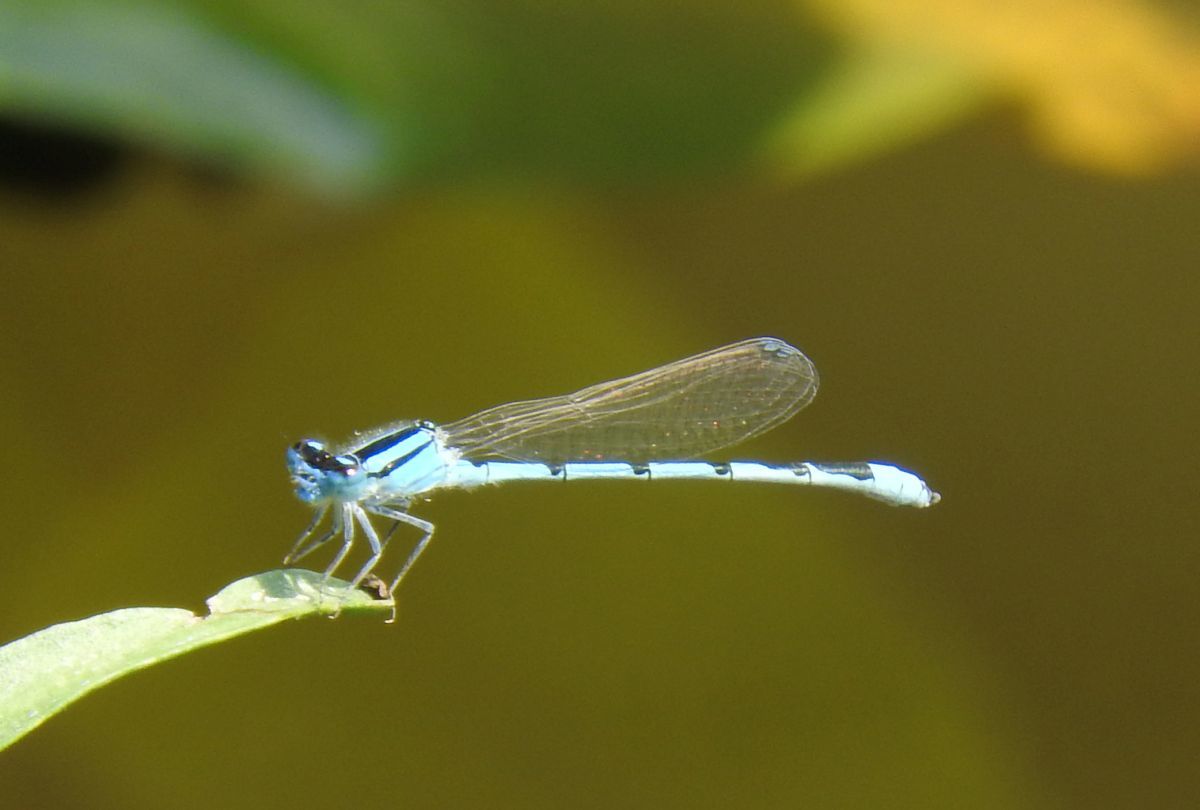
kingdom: Animalia
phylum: Arthropoda
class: Insecta
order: Odonata
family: Coenagrionidae
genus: Enallagma
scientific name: Enallagma civile
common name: Damselfly
